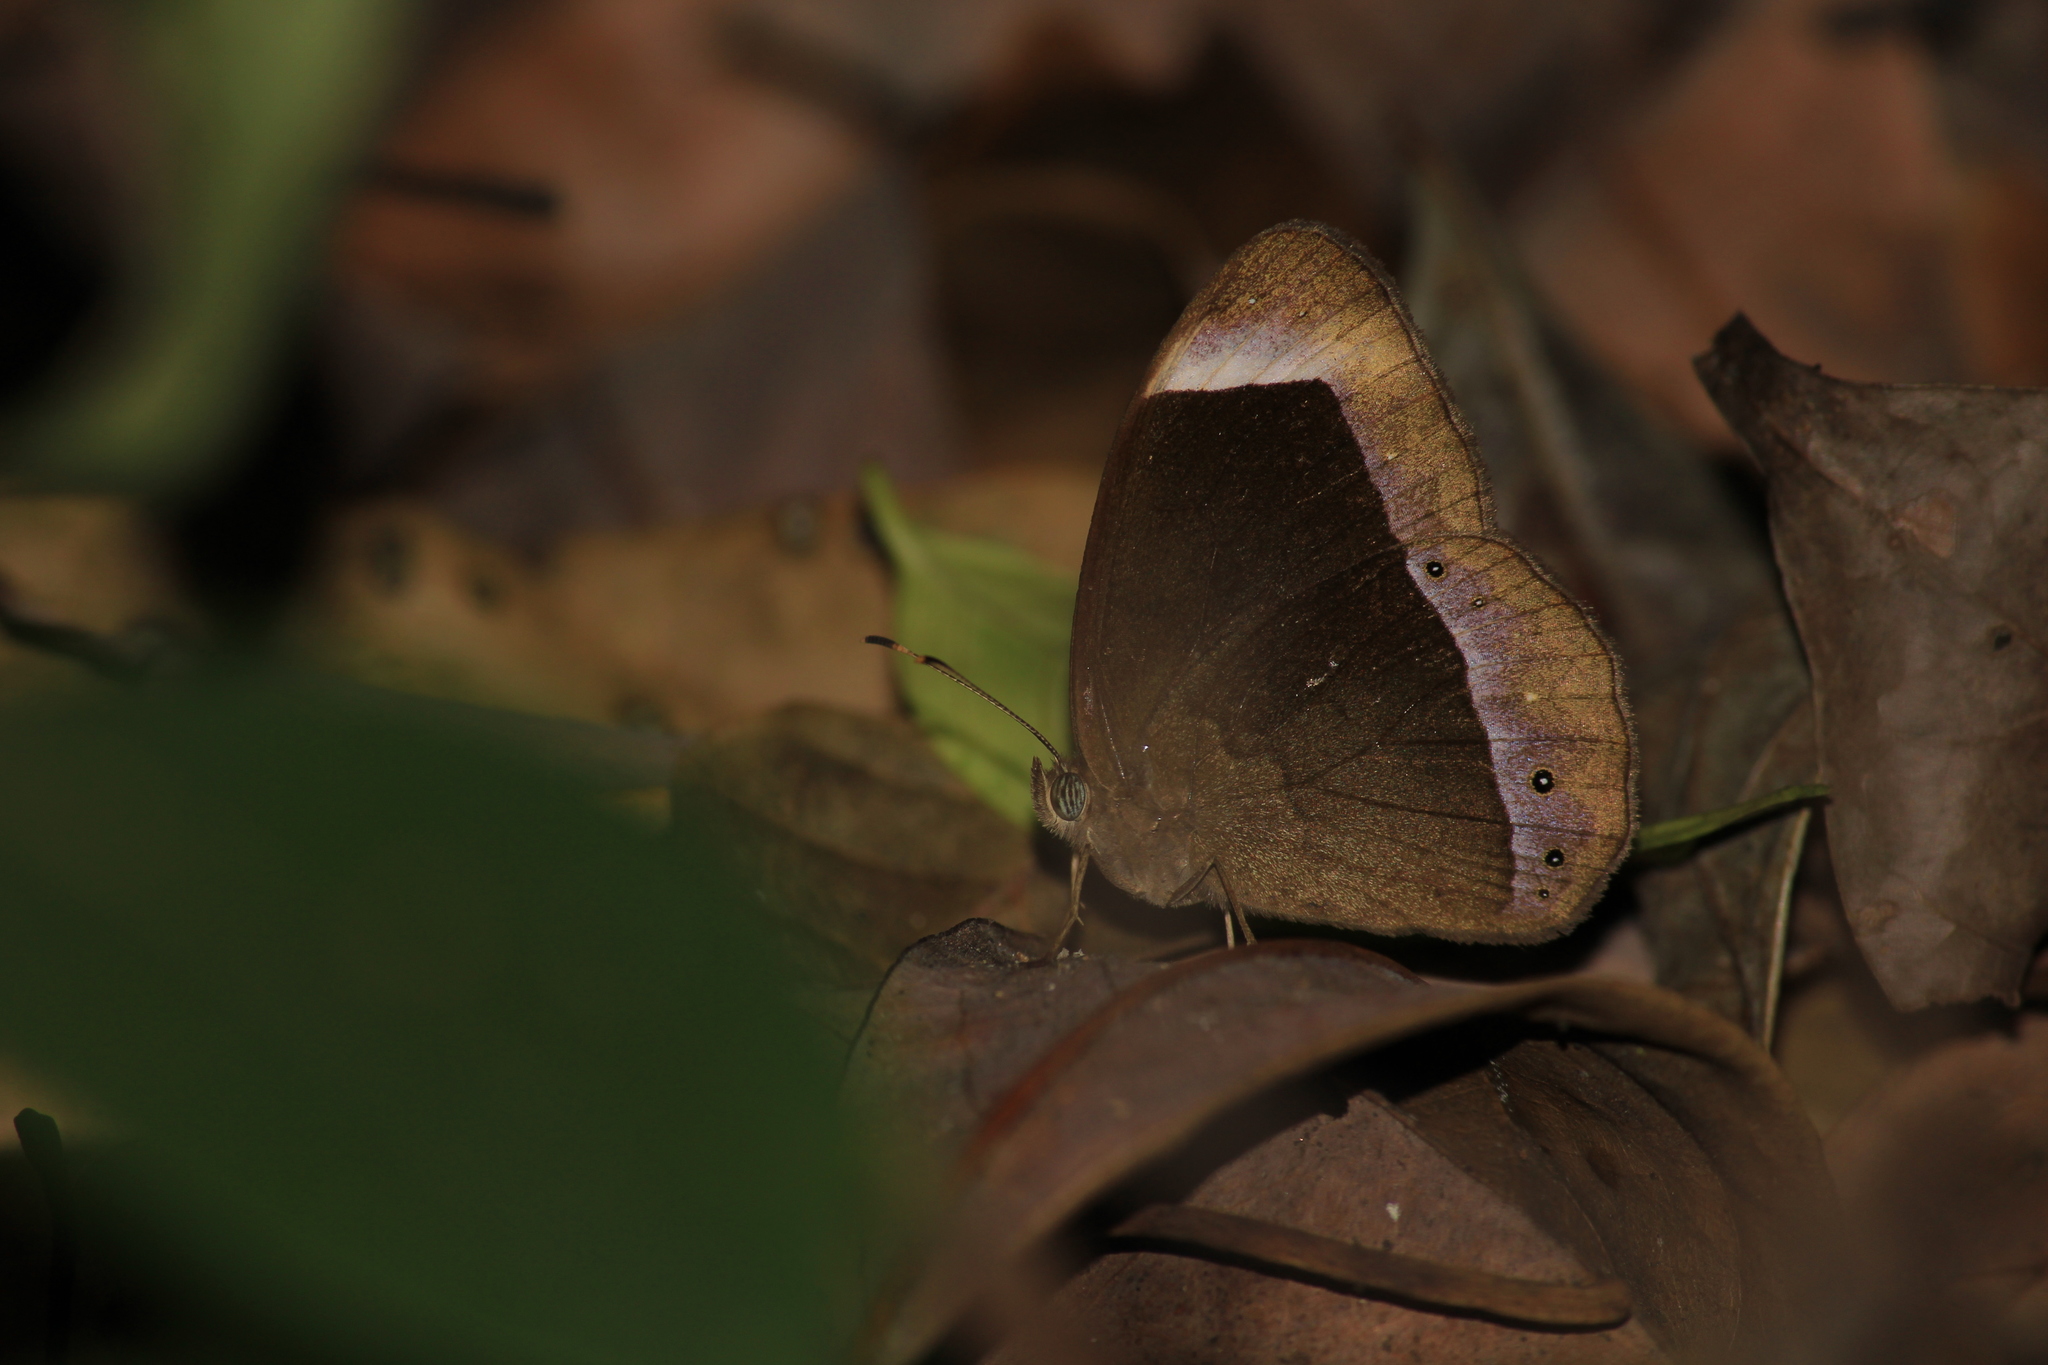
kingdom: Animalia
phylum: Arthropoda
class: Insecta
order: Lepidoptera
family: Nymphalidae
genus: Mycalesis
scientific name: Mycalesis anaxias
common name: White-bar bushbrown
